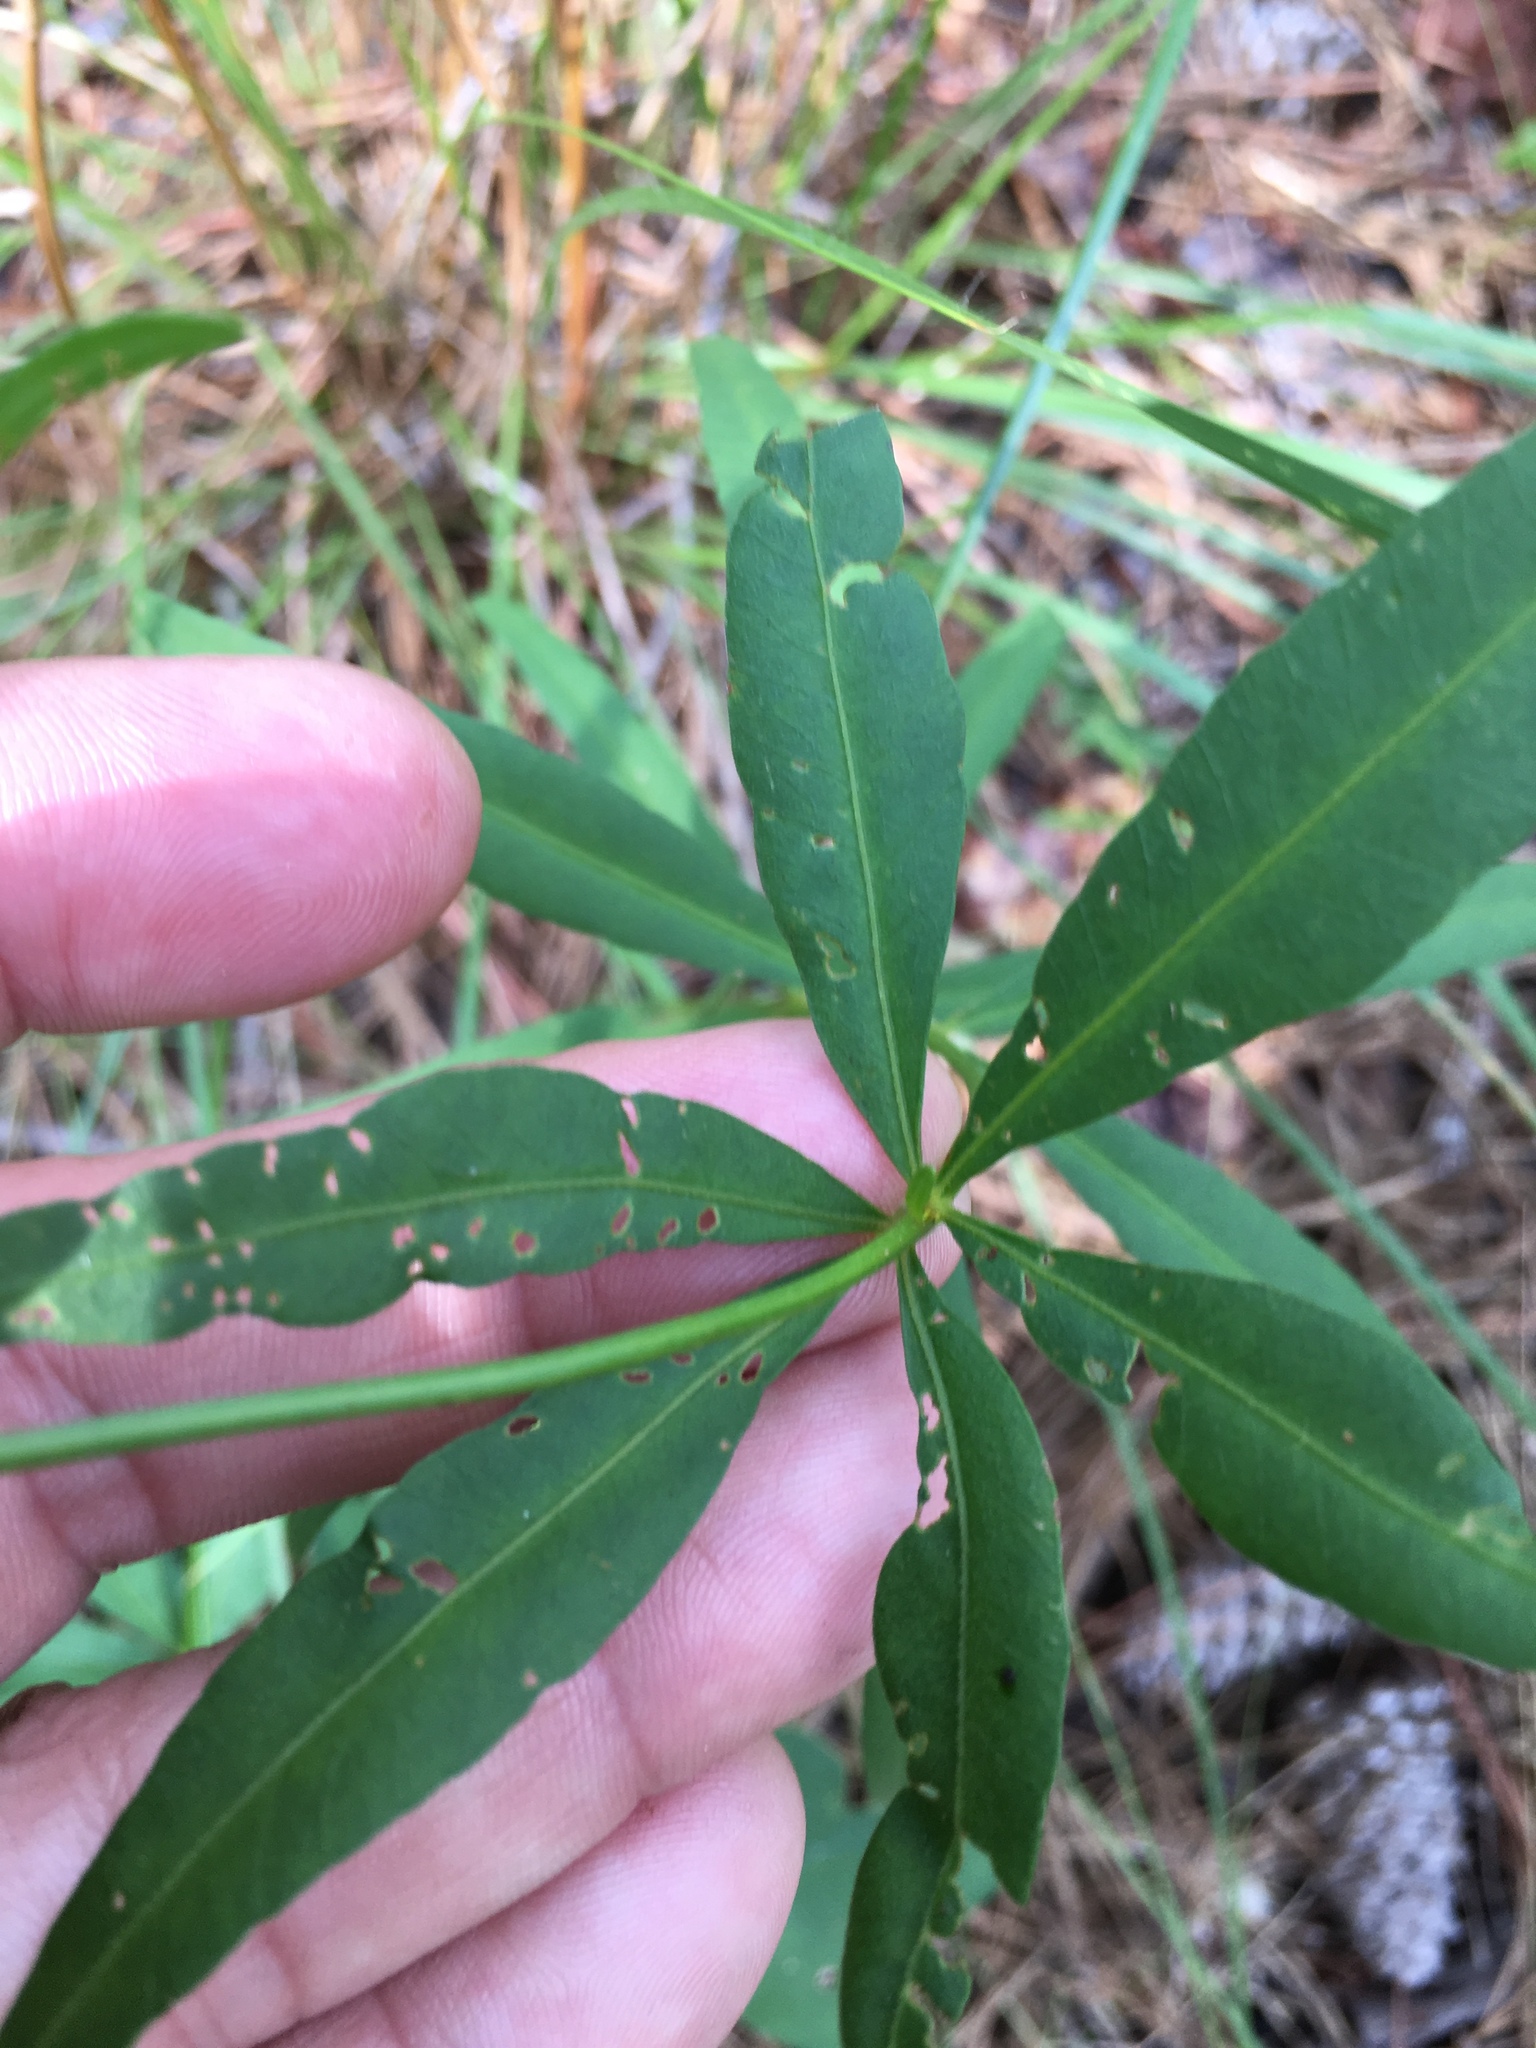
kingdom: Plantae
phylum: Tracheophyta
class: Magnoliopsida
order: Asterales
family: Asteraceae
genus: Coreopsis
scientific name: Coreopsis major
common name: Forest tickseed
